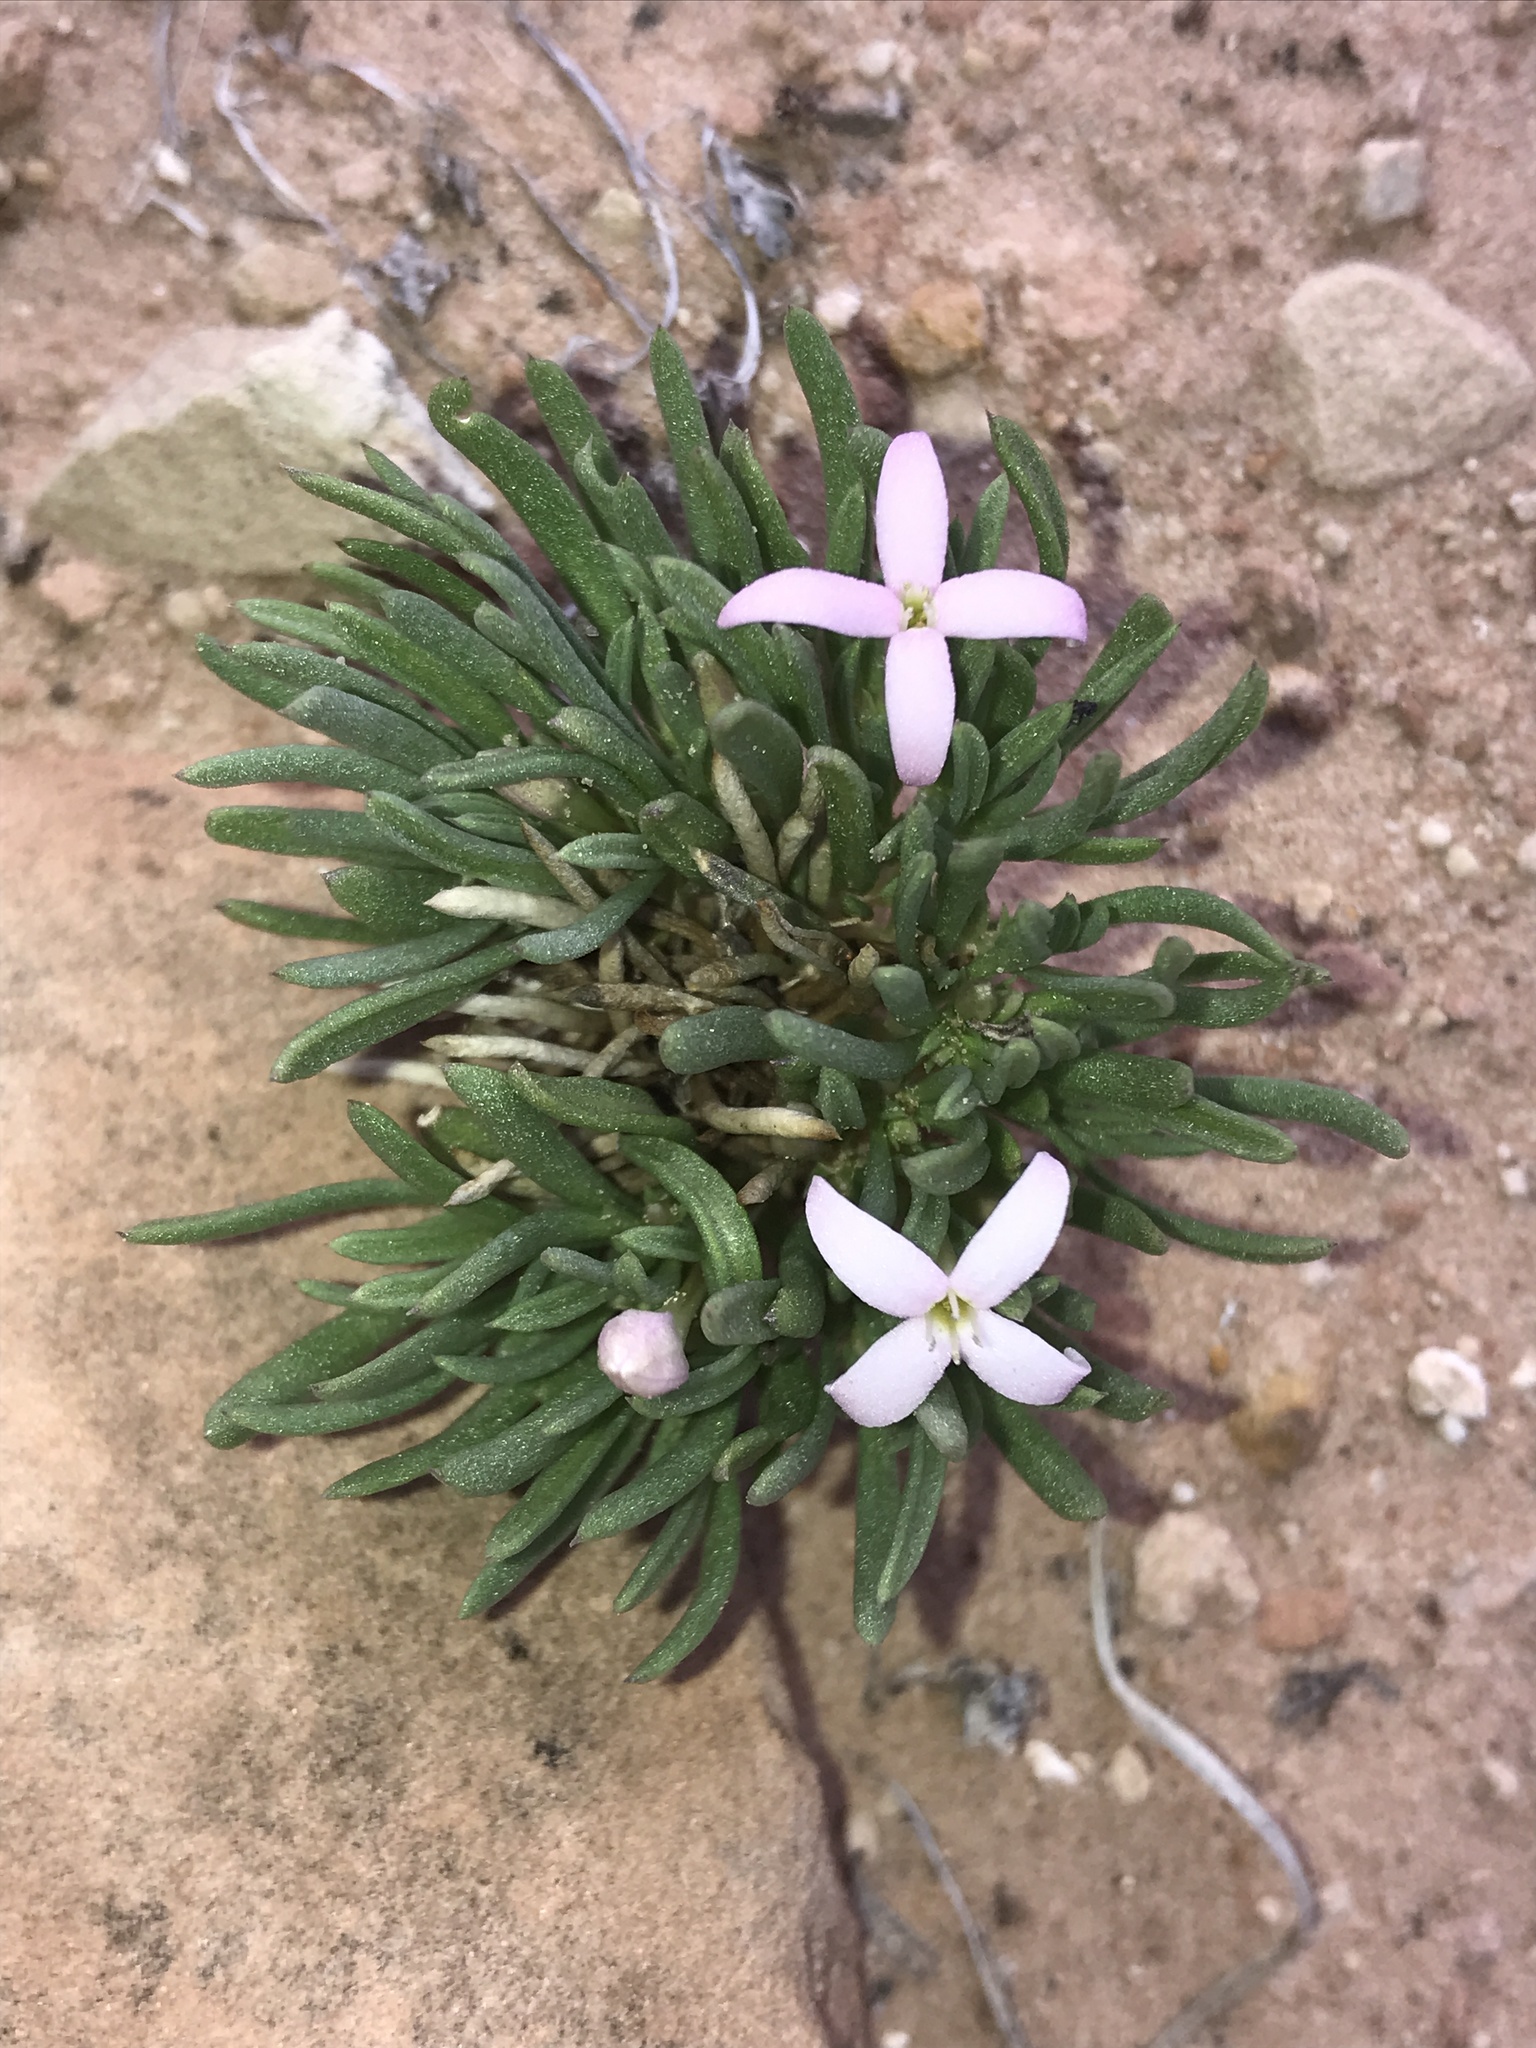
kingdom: Plantae
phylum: Tracheophyta
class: Magnoliopsida
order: Gentianales
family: Rubiaceae
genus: Houstonia
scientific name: Houstonia rubra
